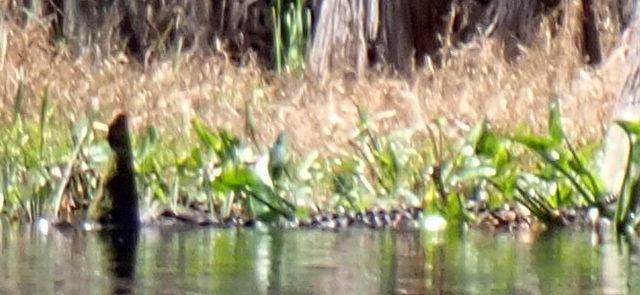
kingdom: Animalia
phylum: Chordata
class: Crocodylia
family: Alligatoridae
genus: Alligator
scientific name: Alligator mississippiensis
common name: American alligator
